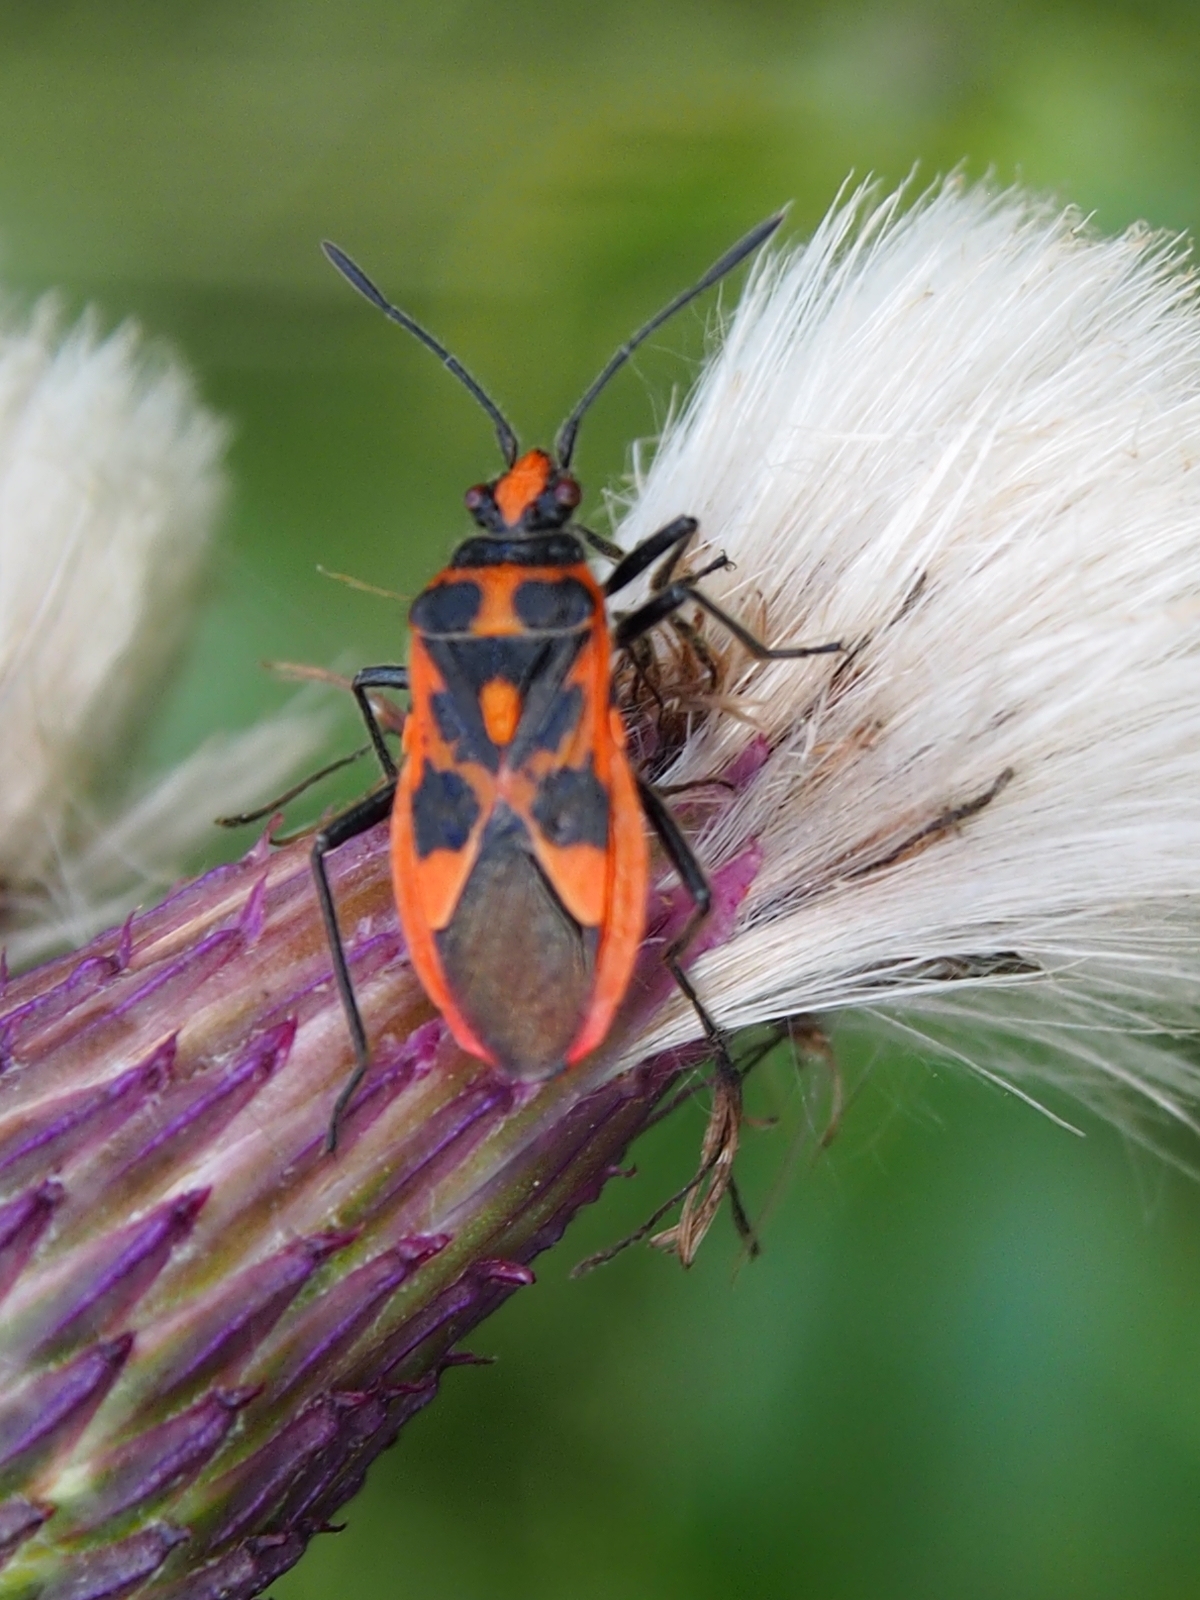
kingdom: Animalia
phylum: Arthropoda
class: Insecta
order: Hemiptera
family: Rhopalidae
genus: Corizus
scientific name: Corizus hyoscyami
